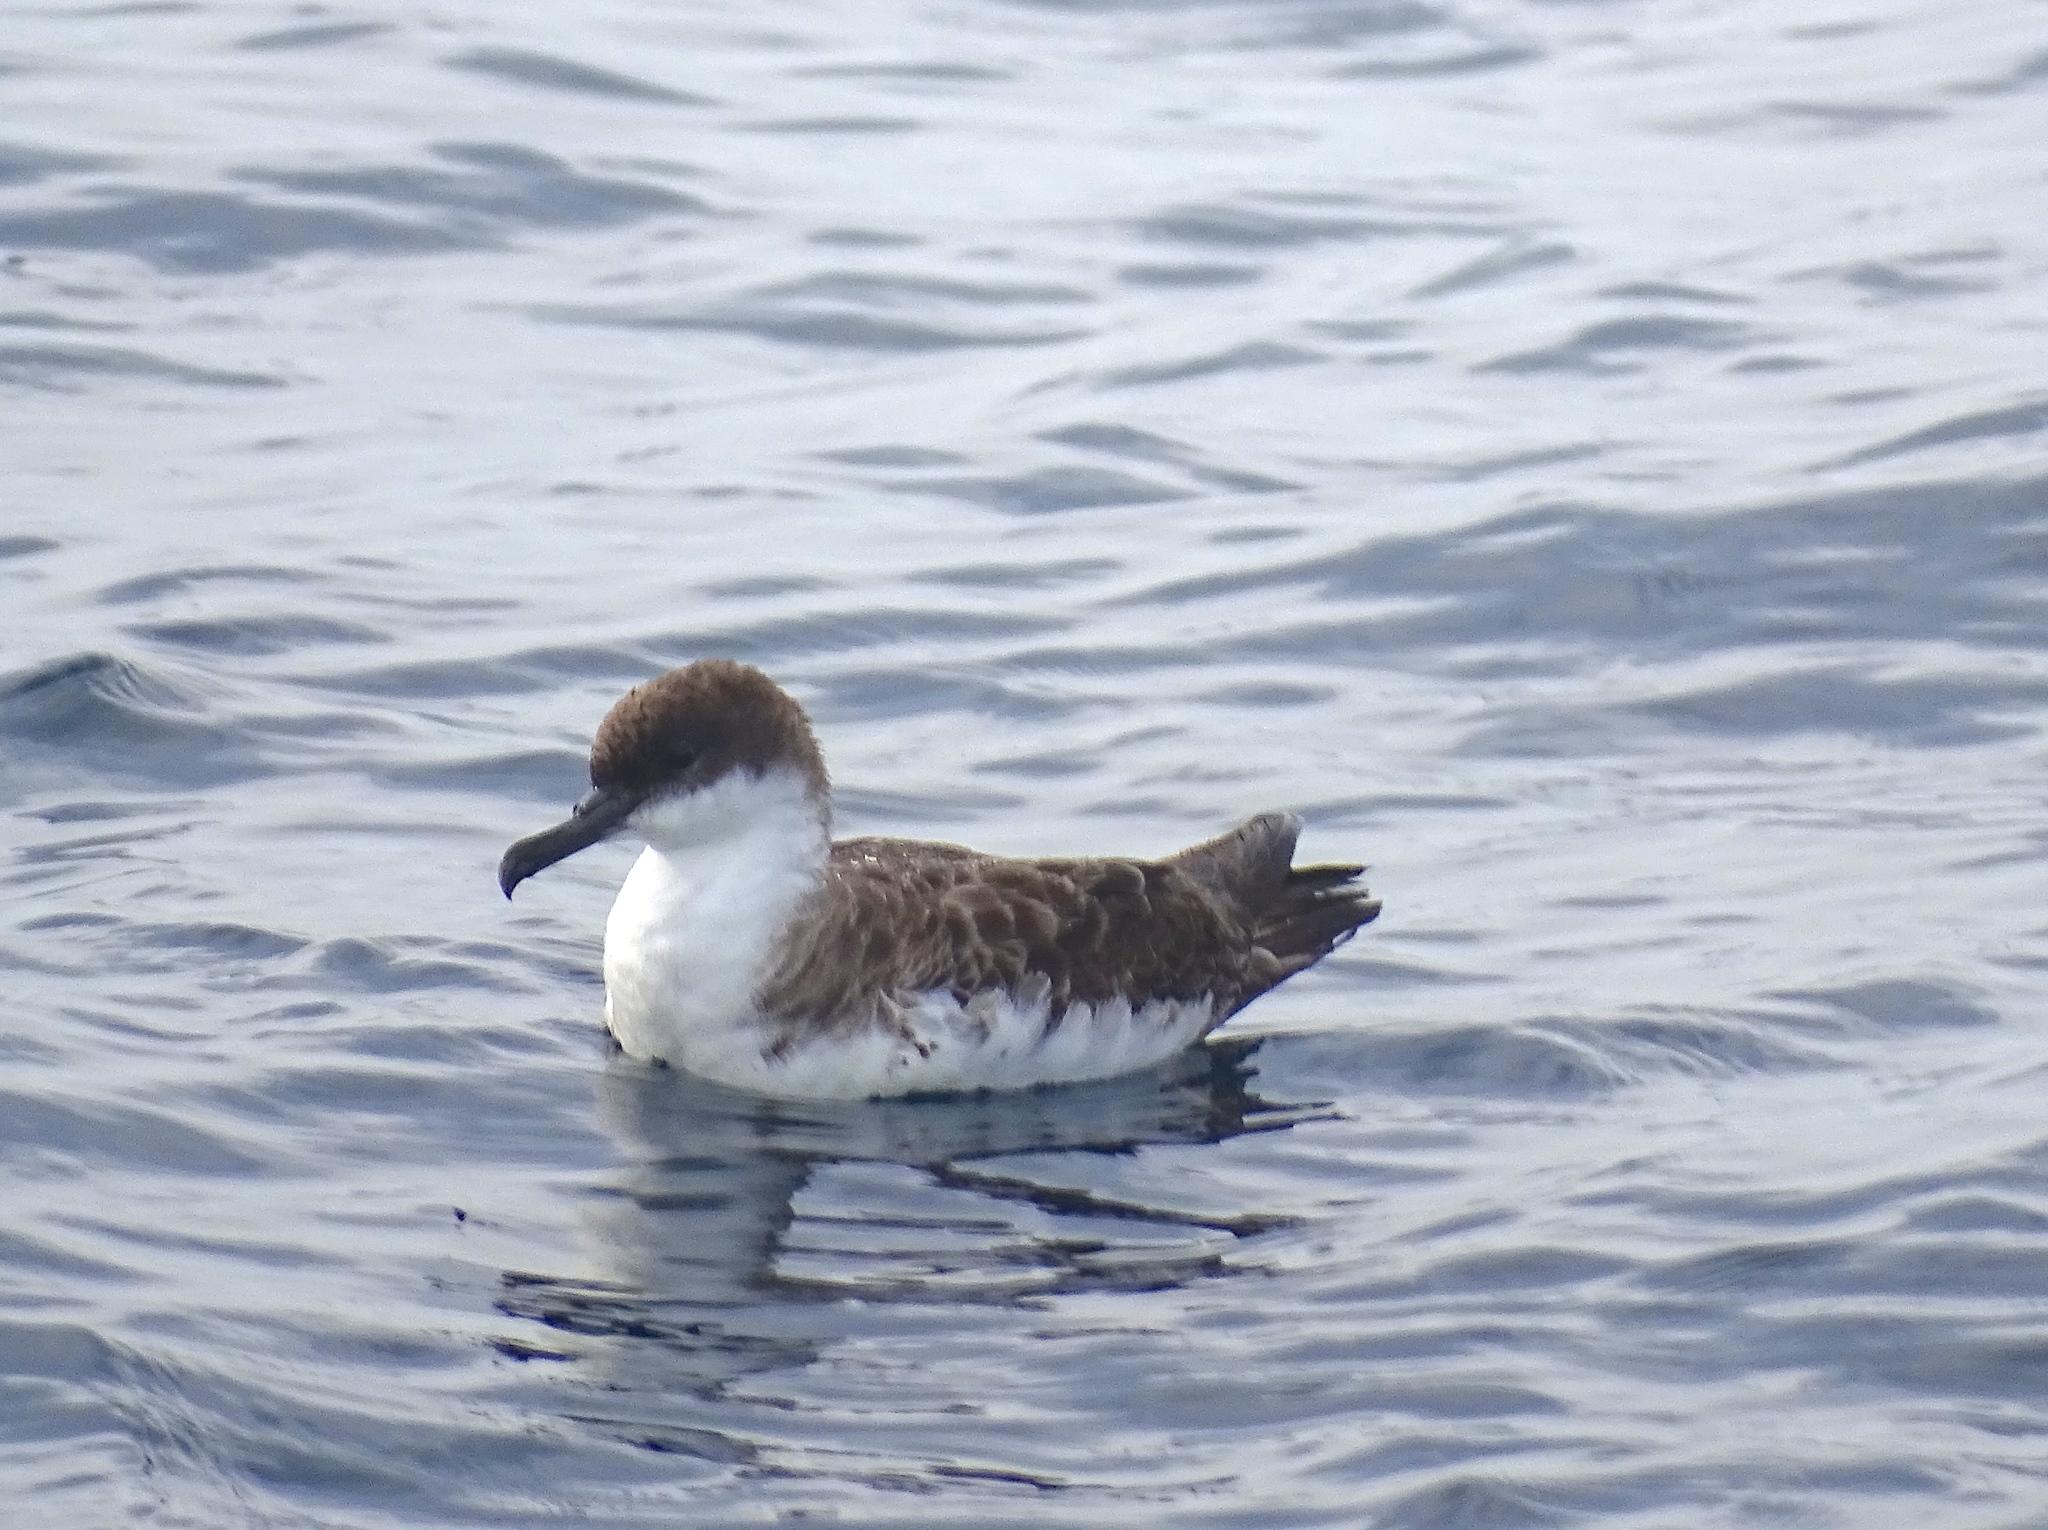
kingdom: Animalia
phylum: Chordata
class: Aves
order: Procellariiformes
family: Procellariidae
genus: Puffinus
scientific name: Puffinus gravis
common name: Great shearwater
